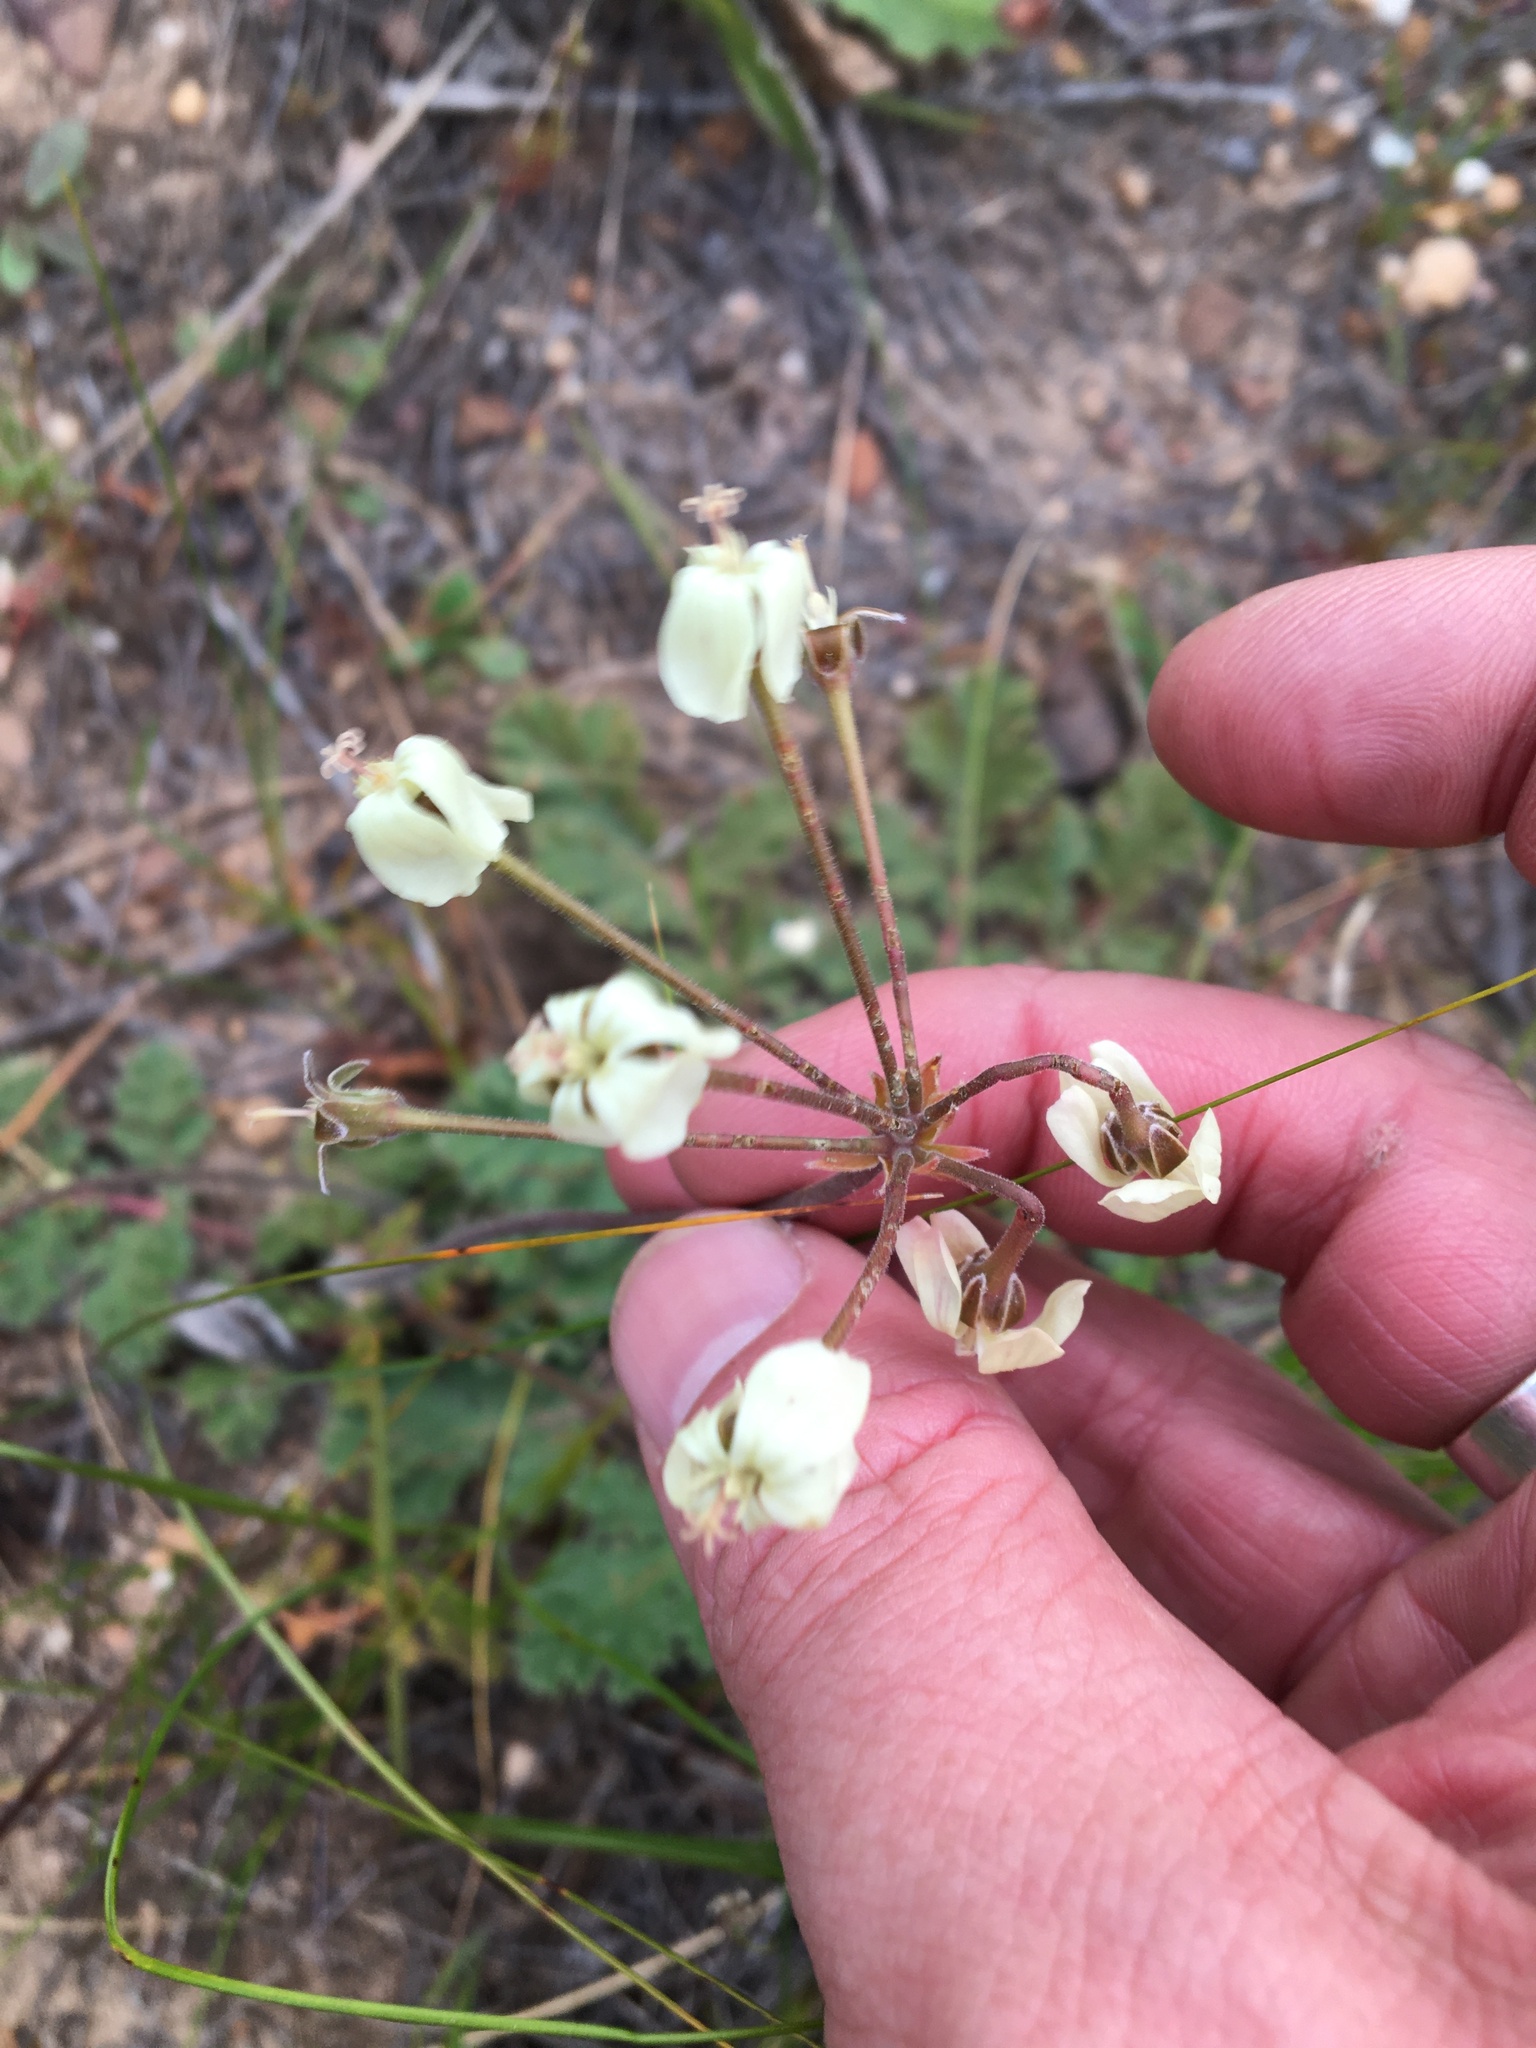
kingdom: Plantae
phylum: Tracheophyta
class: Magnoliopsida
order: Geraniales
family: Geraniaceae
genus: Pelargonium
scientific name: Pelargonium radulifolium
